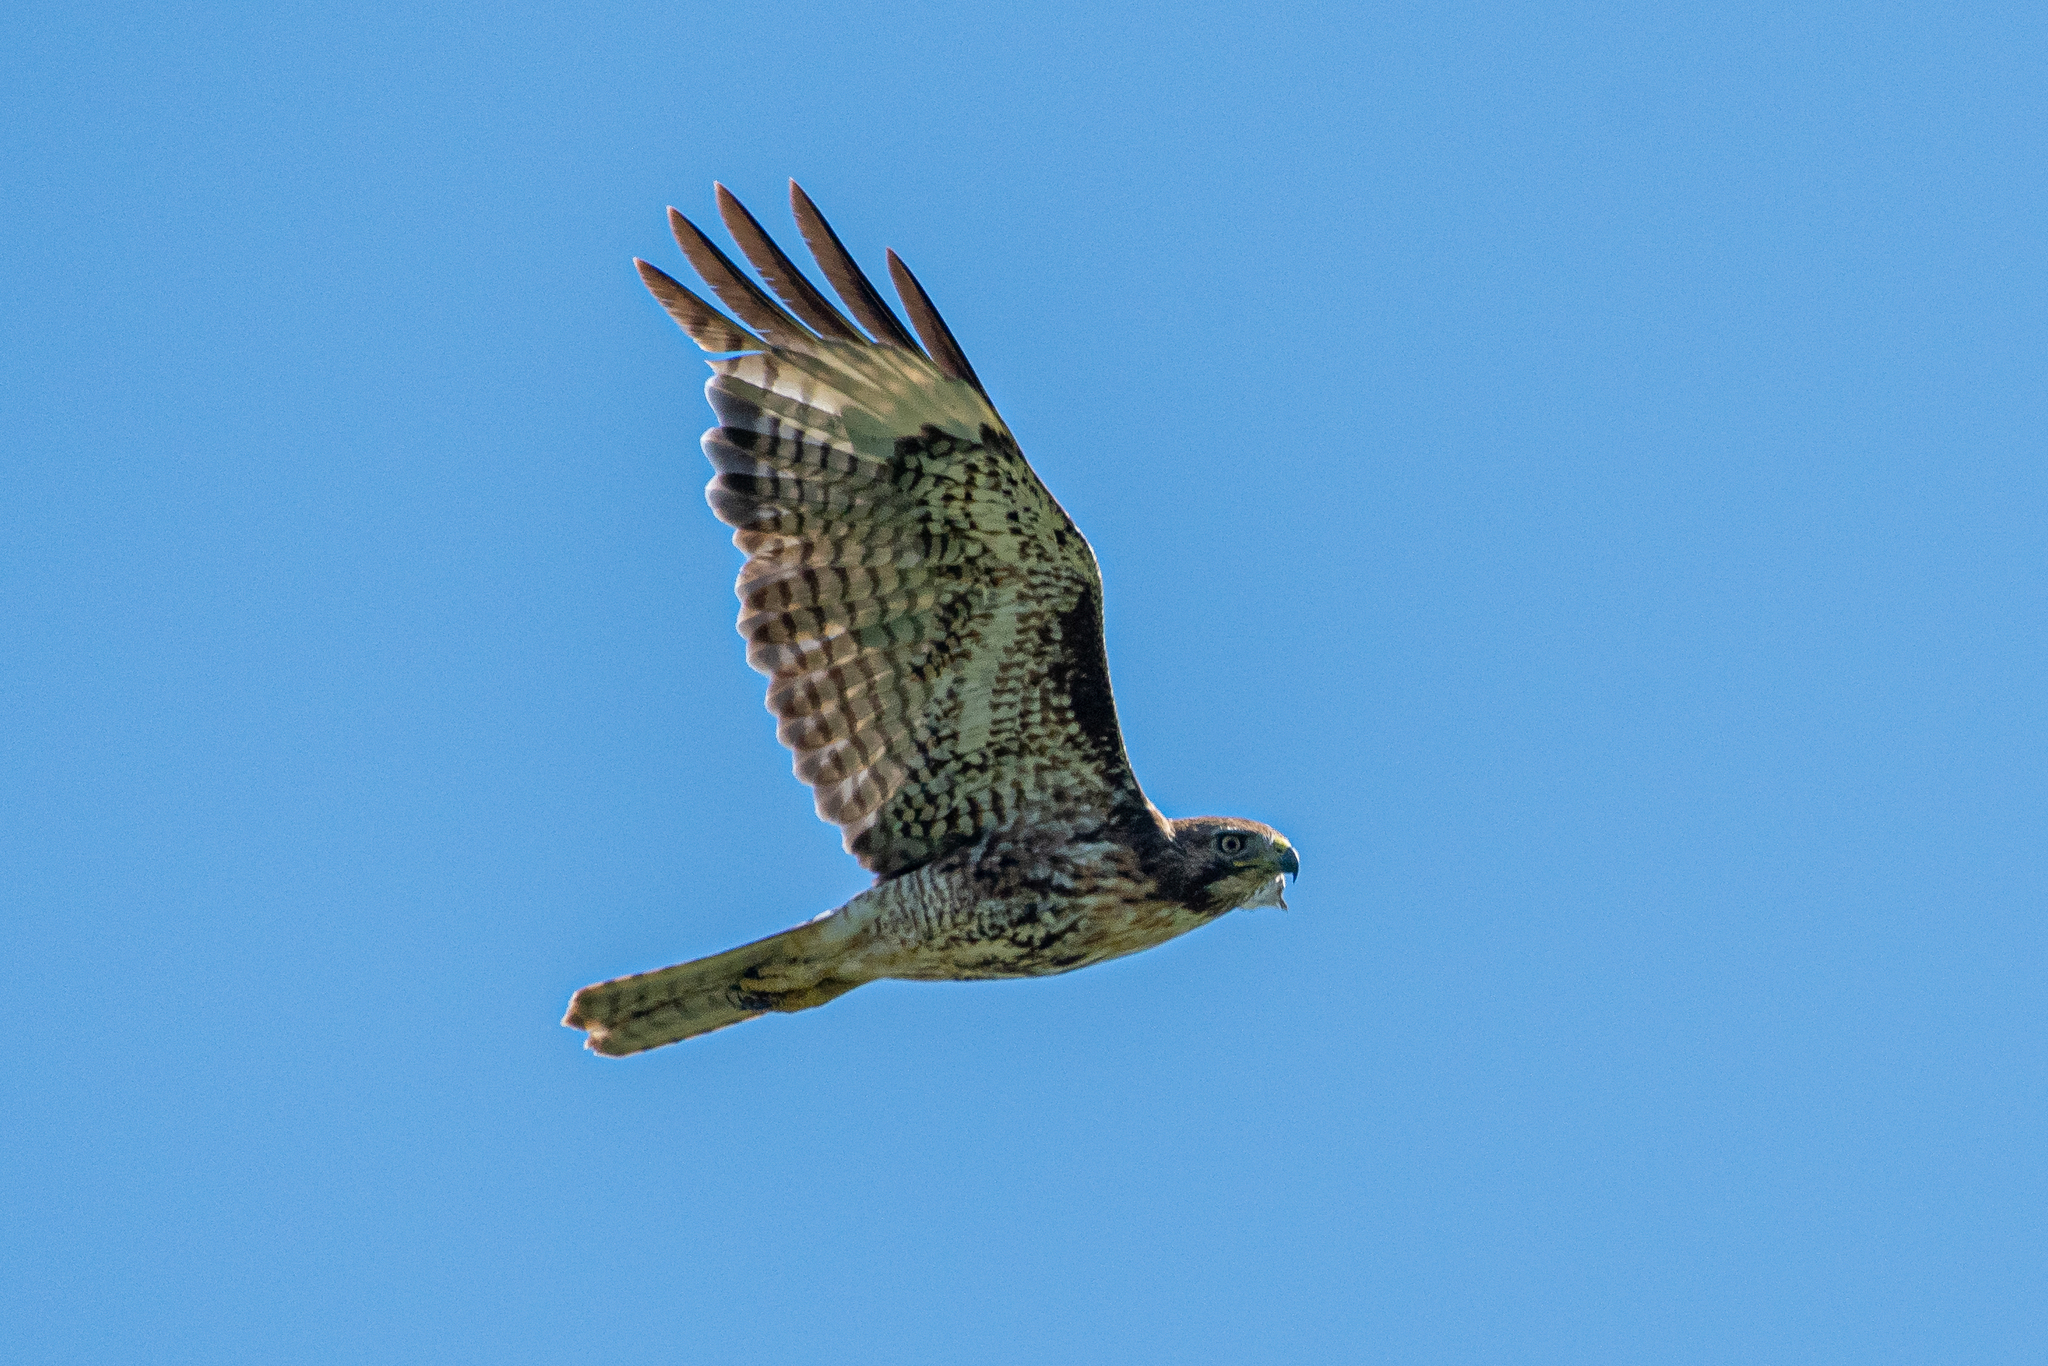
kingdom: Animalia
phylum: Chordata
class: Aves
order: Accipitriformes
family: Accipitridae
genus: Buteo
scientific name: Buteo jamaicensis
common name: Red-tailed hawk
